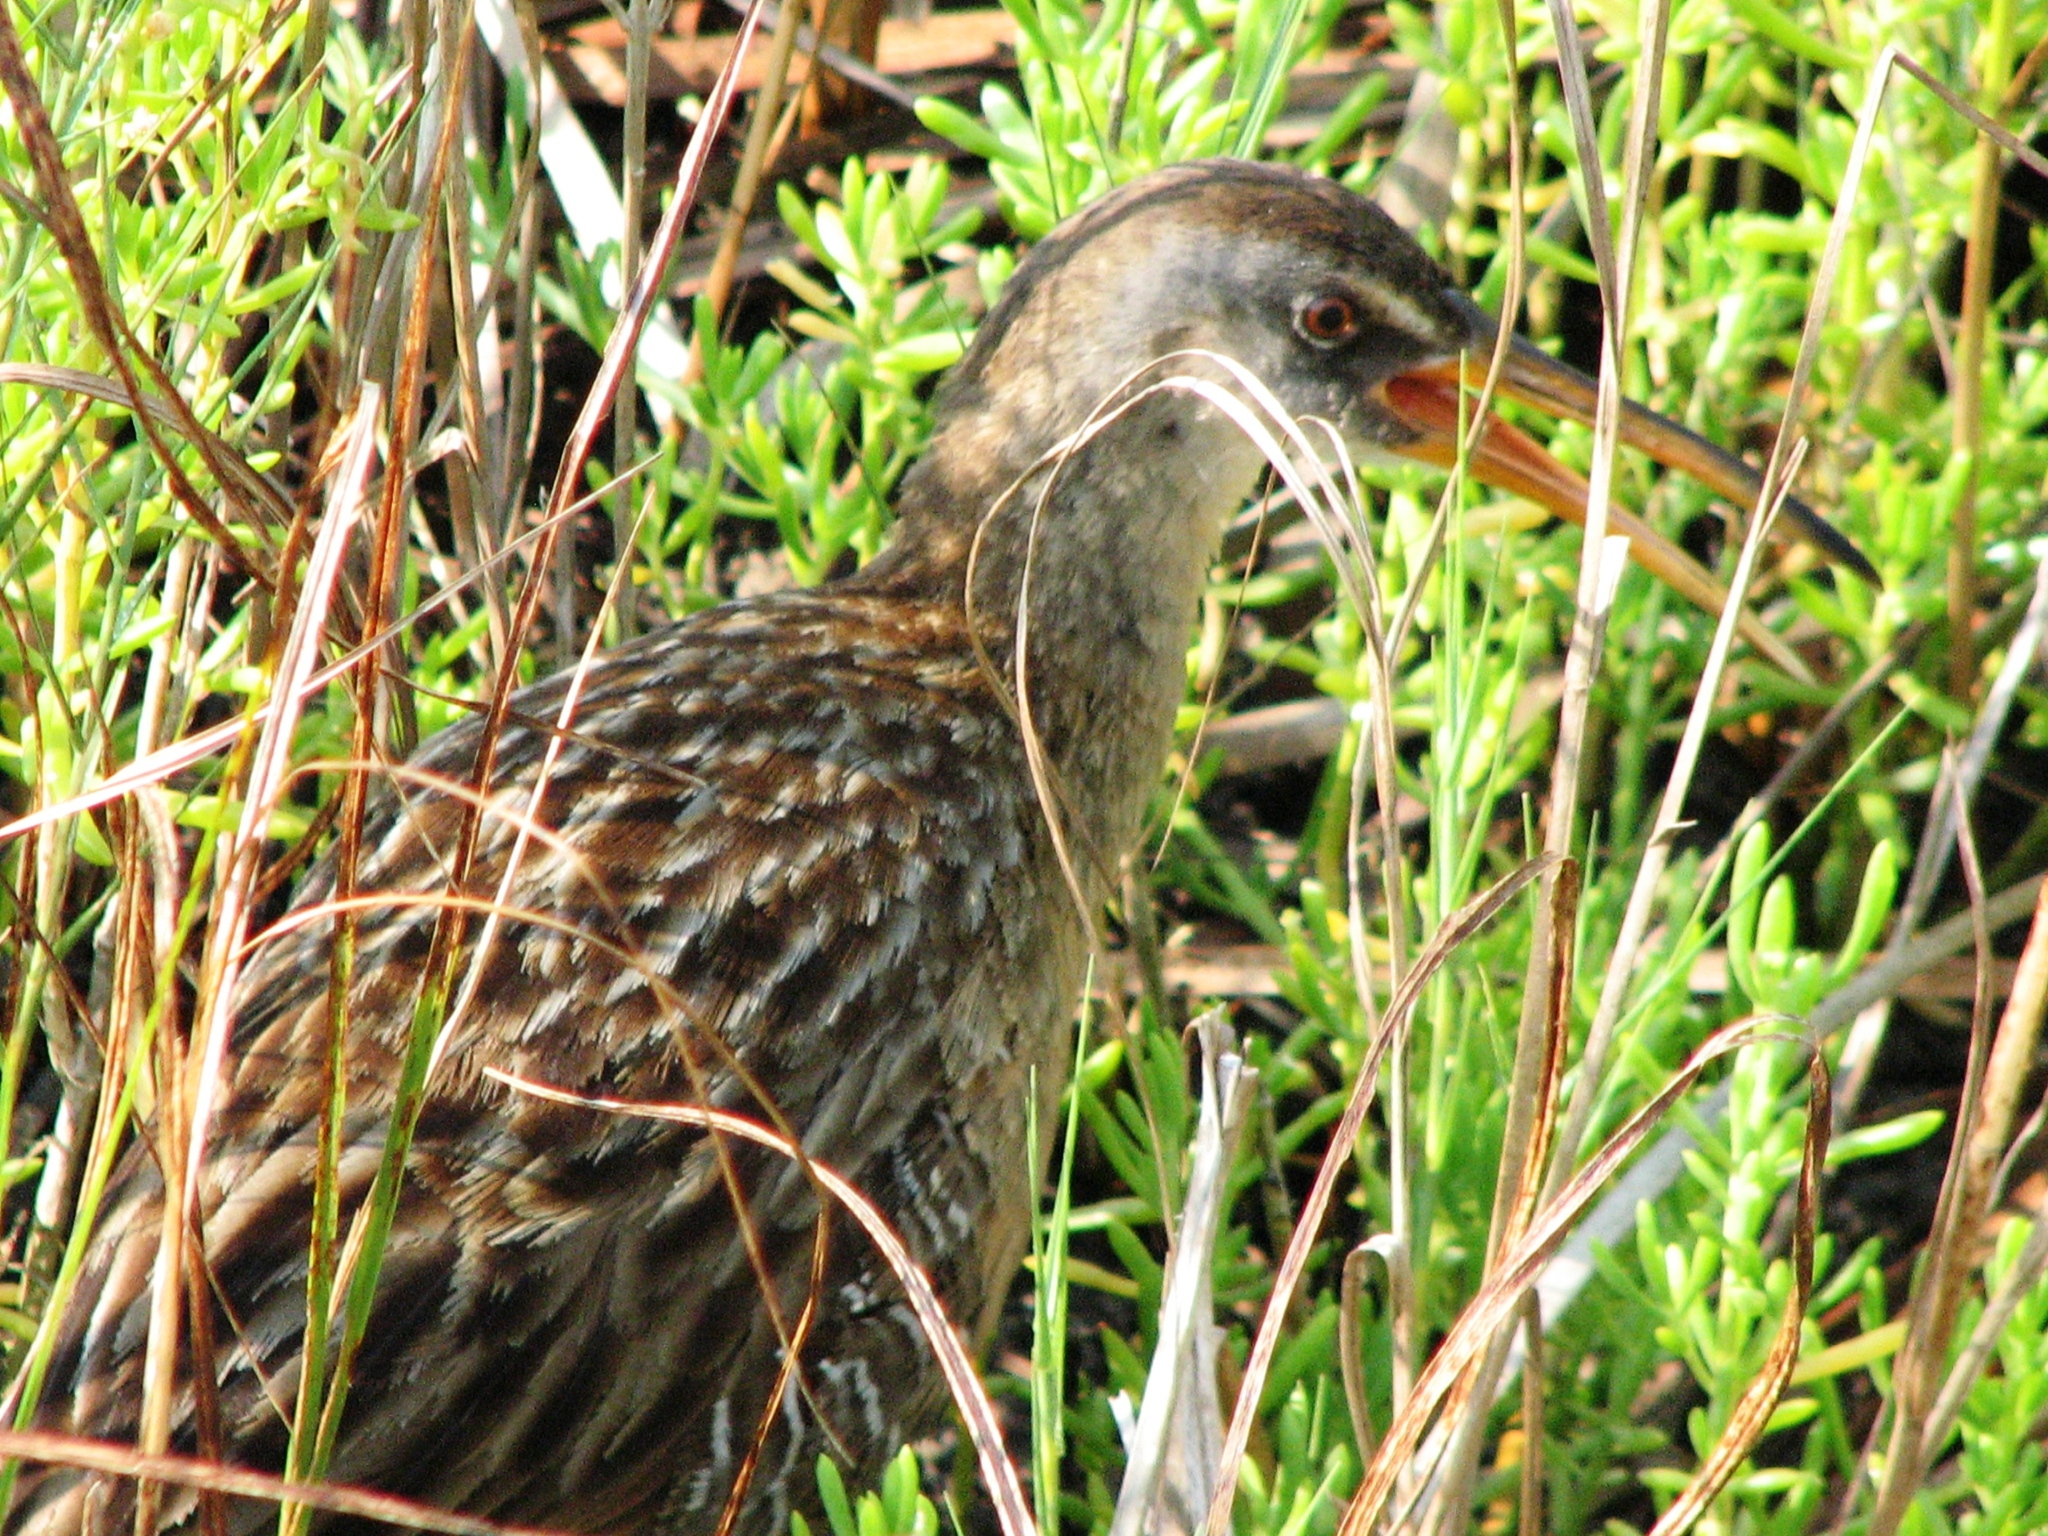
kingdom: Animalia
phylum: Chordata
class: Aves
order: Gruiformes
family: Rallidae
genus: Rallus
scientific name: Rallus crepitans
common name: Clapper rail
